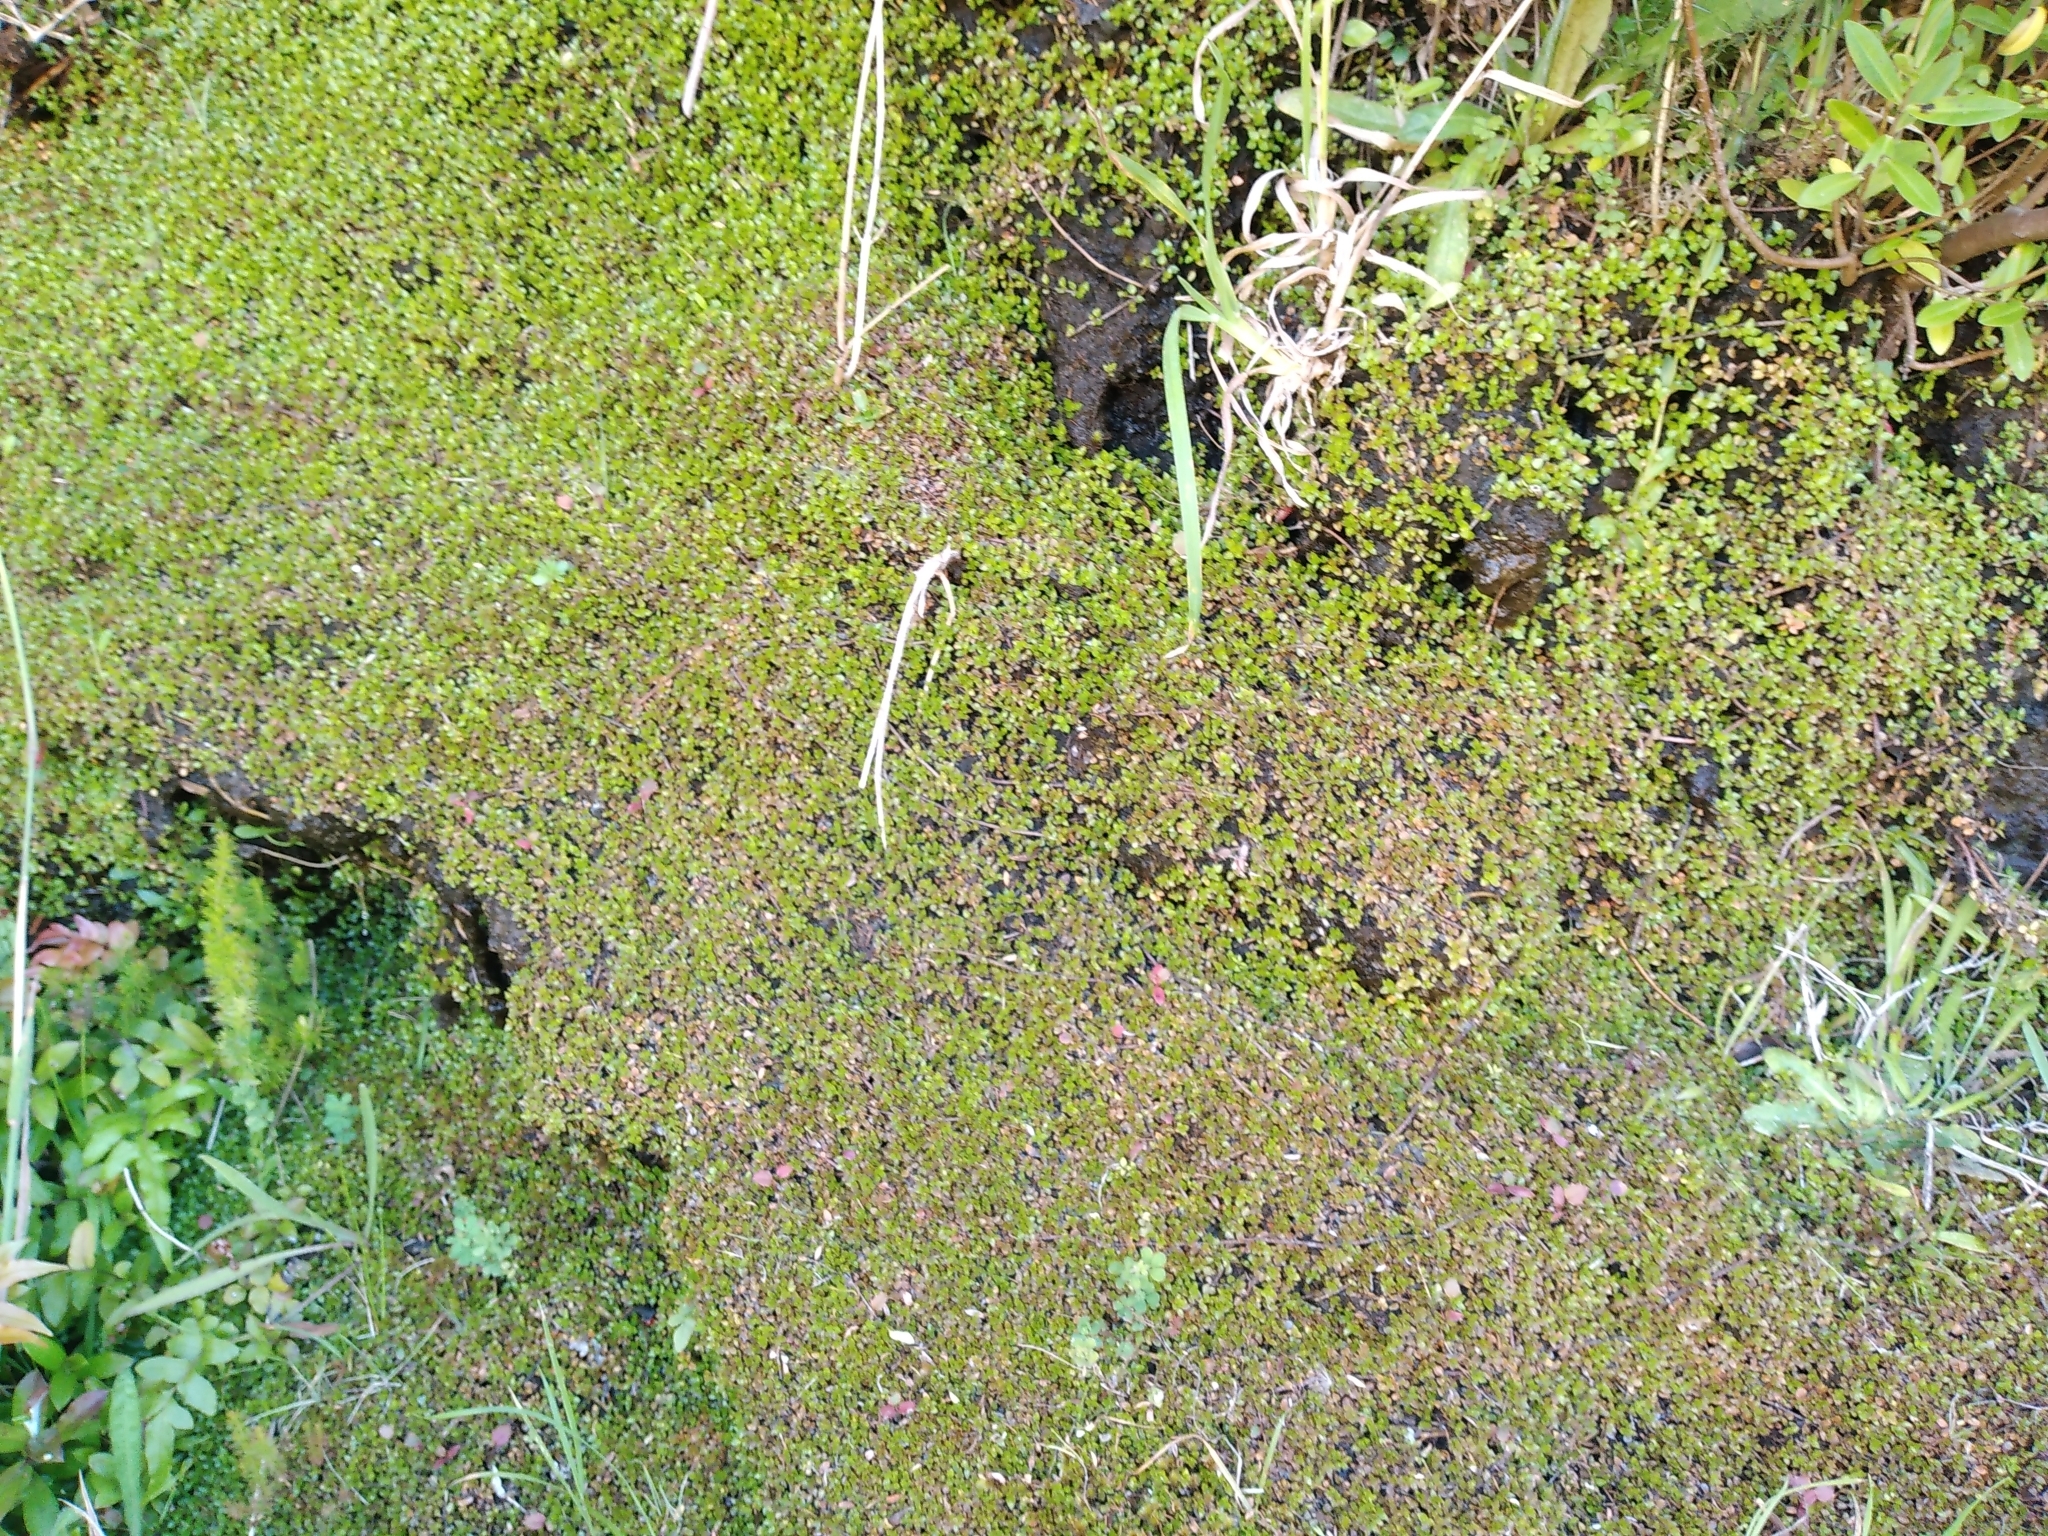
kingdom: Plantae
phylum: Tracheophyta
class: Magnoliopsida
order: Gentianales
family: Rubiaceae
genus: Nertera
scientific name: Nertera granadensis
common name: Beadplant
